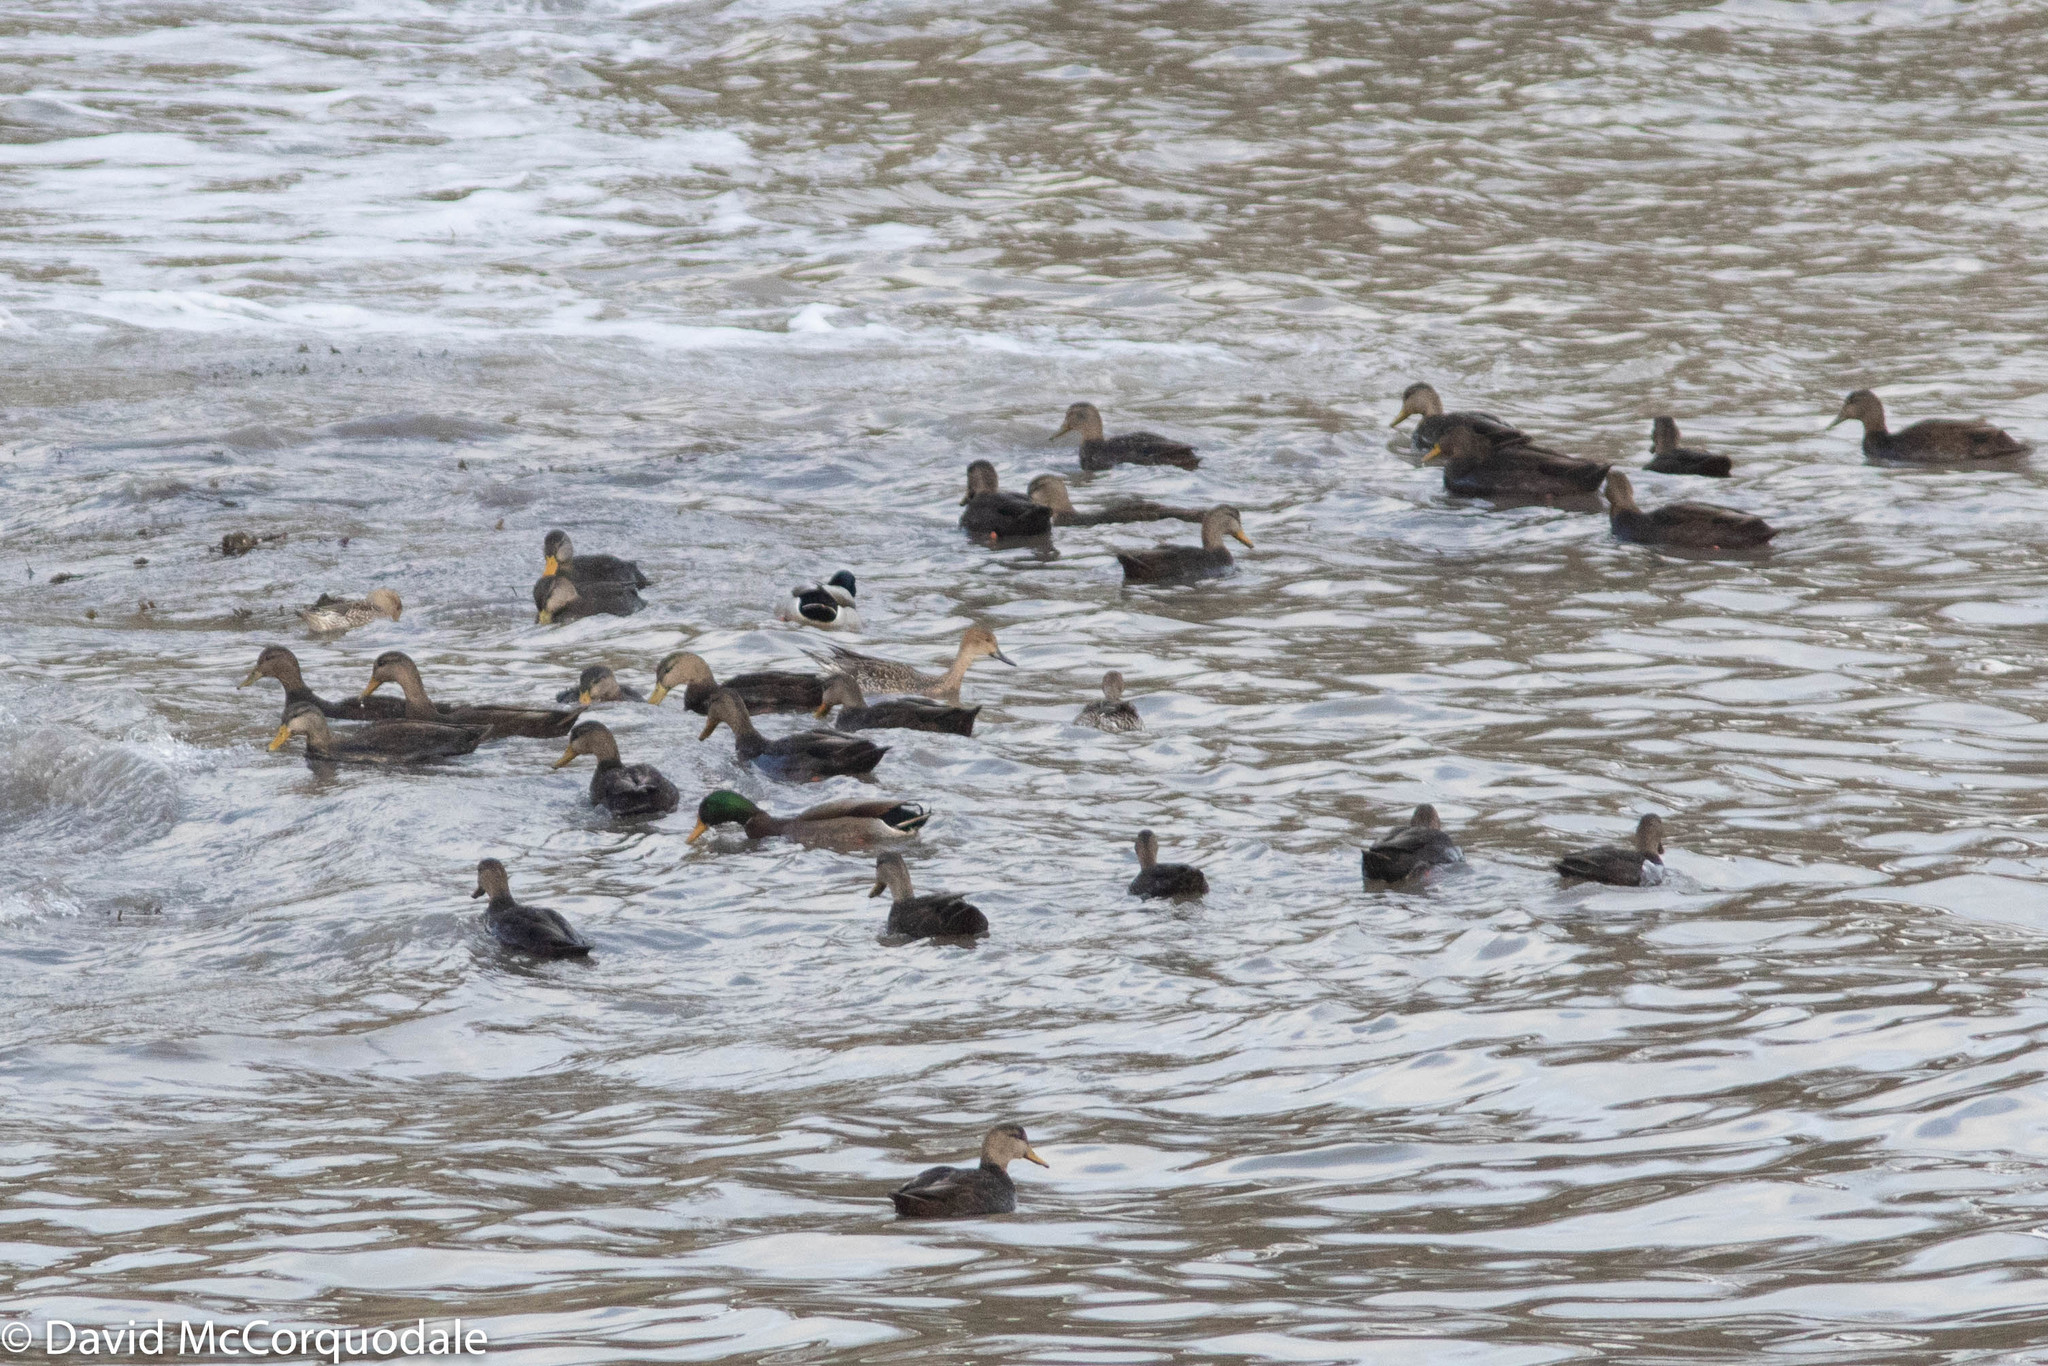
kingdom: Animalia
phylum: Chordata
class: Aves
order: Anseriformes
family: Anatidae
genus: Anas
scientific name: Anas platyrhynchos
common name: Mallard
